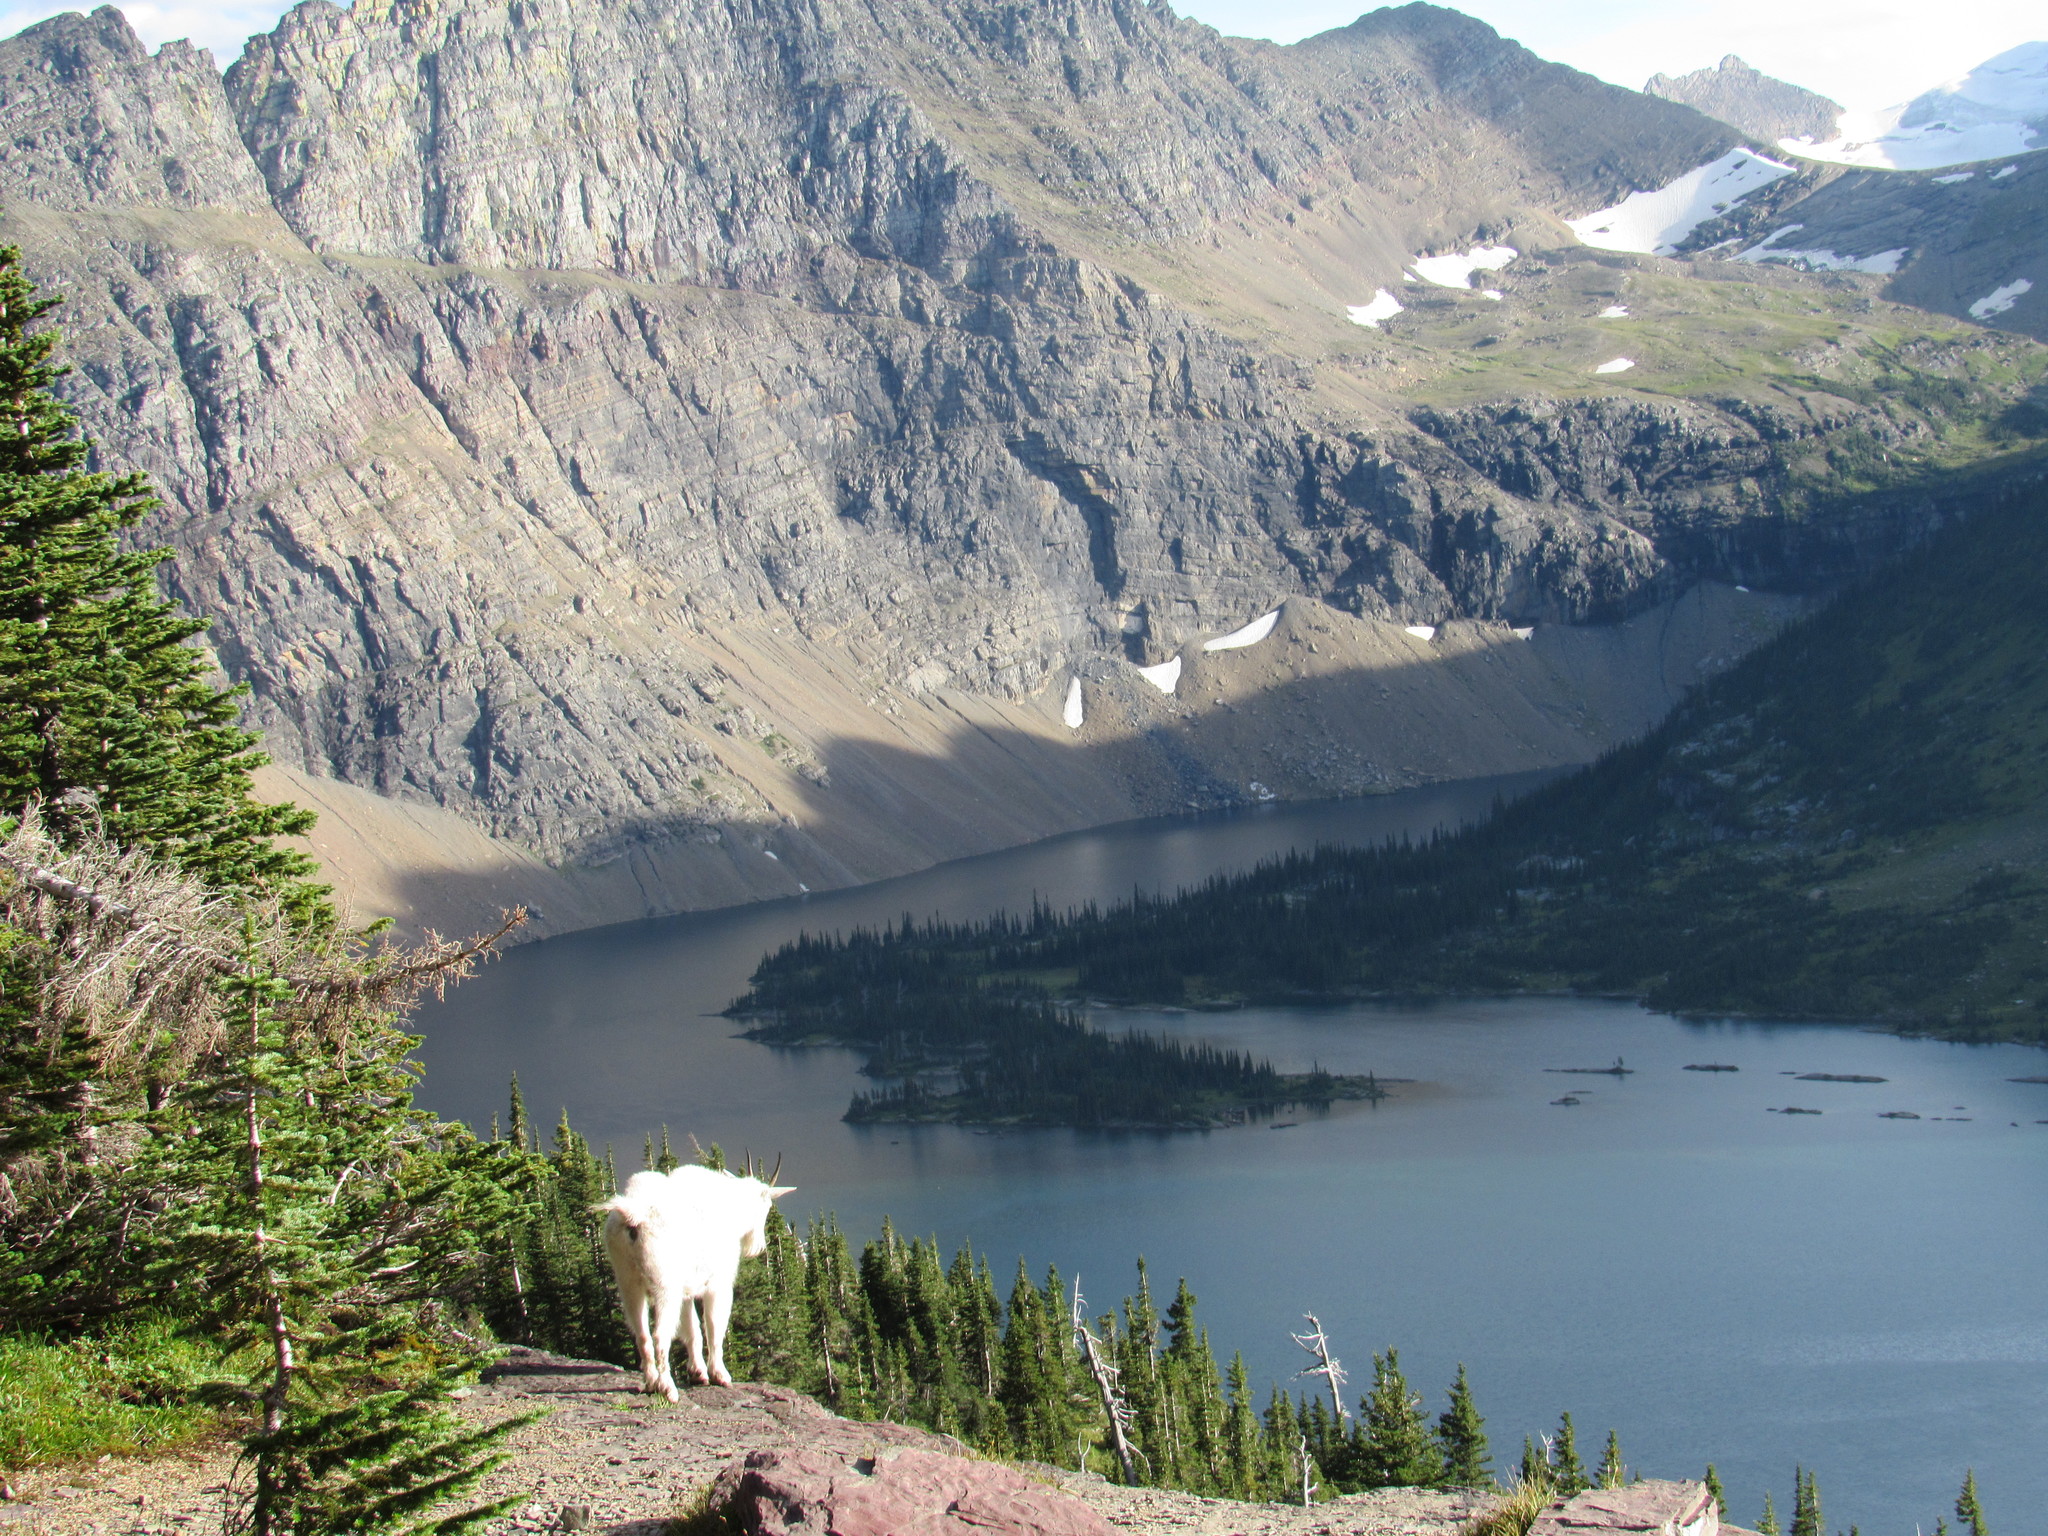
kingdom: Animalia
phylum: Chordata
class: Mammalia
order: Artiodactyla
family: Bovidae
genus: Oreamnos
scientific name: Oreamnos americanus
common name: Mountain goat
